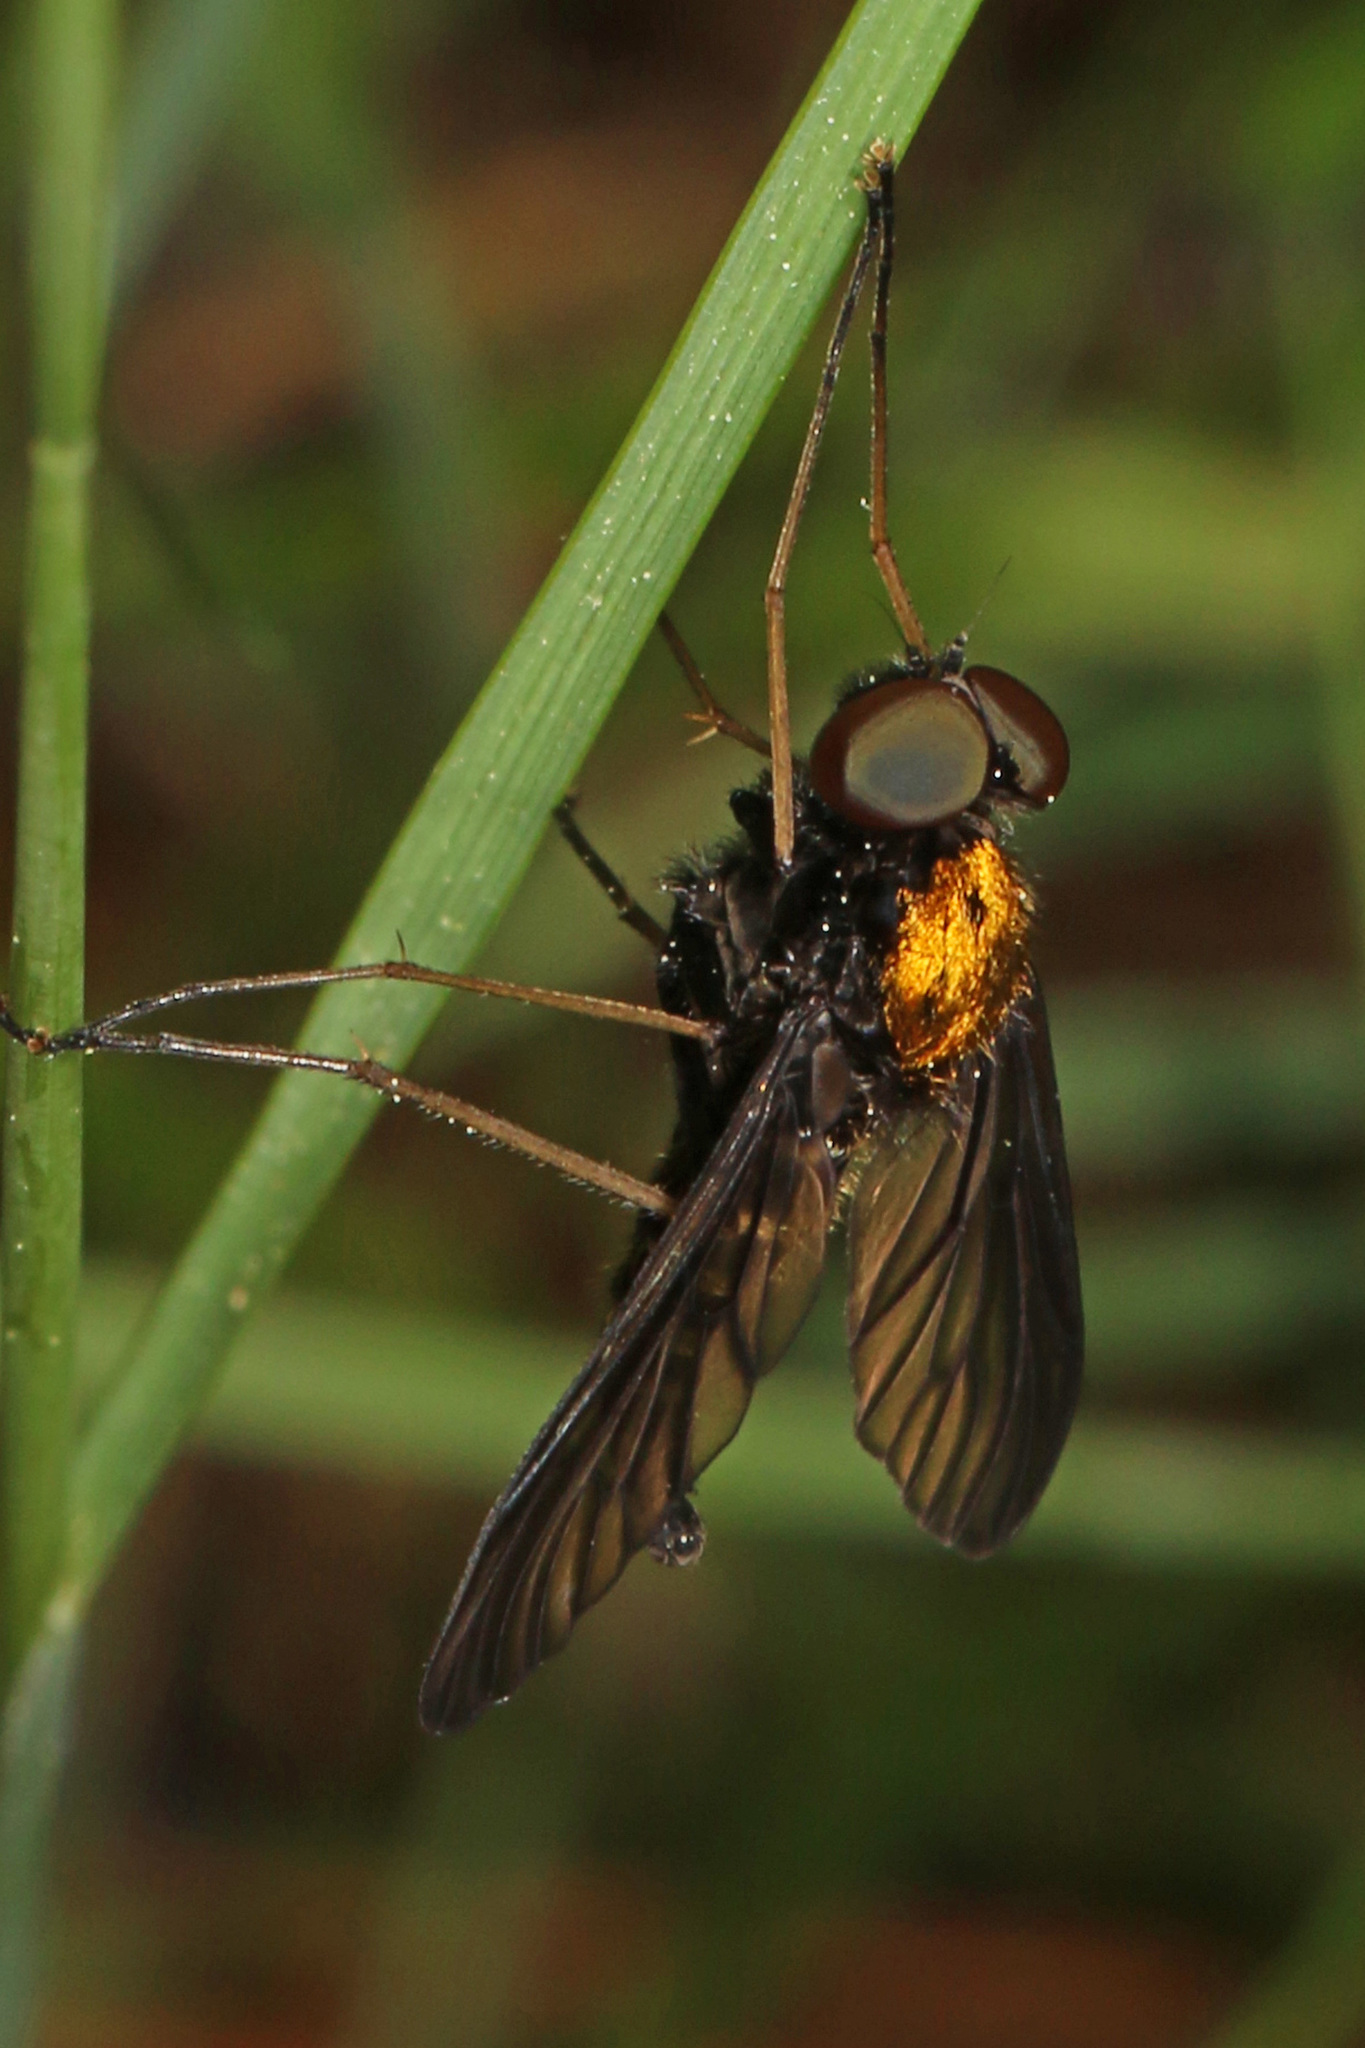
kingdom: Animalia
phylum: Arthropoda
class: Insecta
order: Diptera
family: Rhagionidae
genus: Chrysopilus
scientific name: Chrysopilus thoracicus
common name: Golden-backed snipe fly
